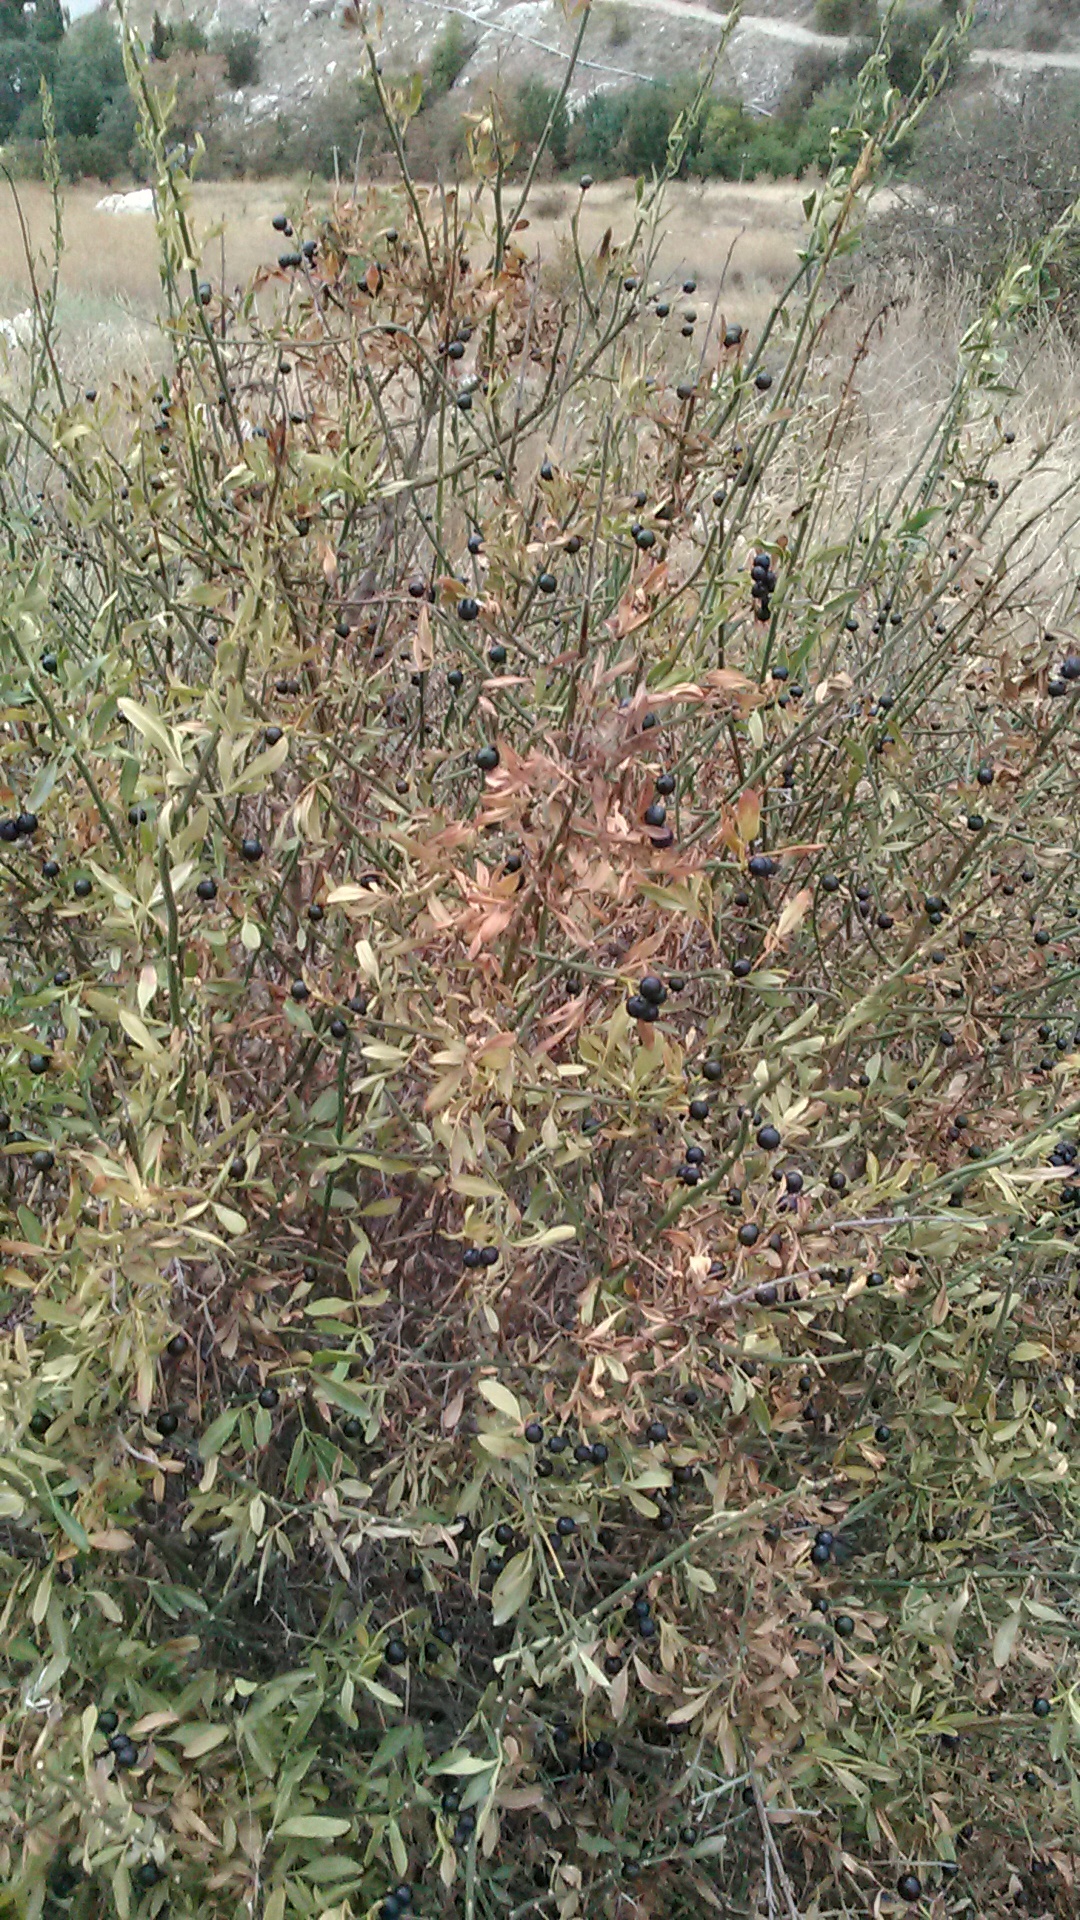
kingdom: Plantae
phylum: Tracheophyta
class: Magnoliopsida
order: Lamiales
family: Oleaceae
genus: Chrysojasminum
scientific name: Chrysojasminum fruticans
